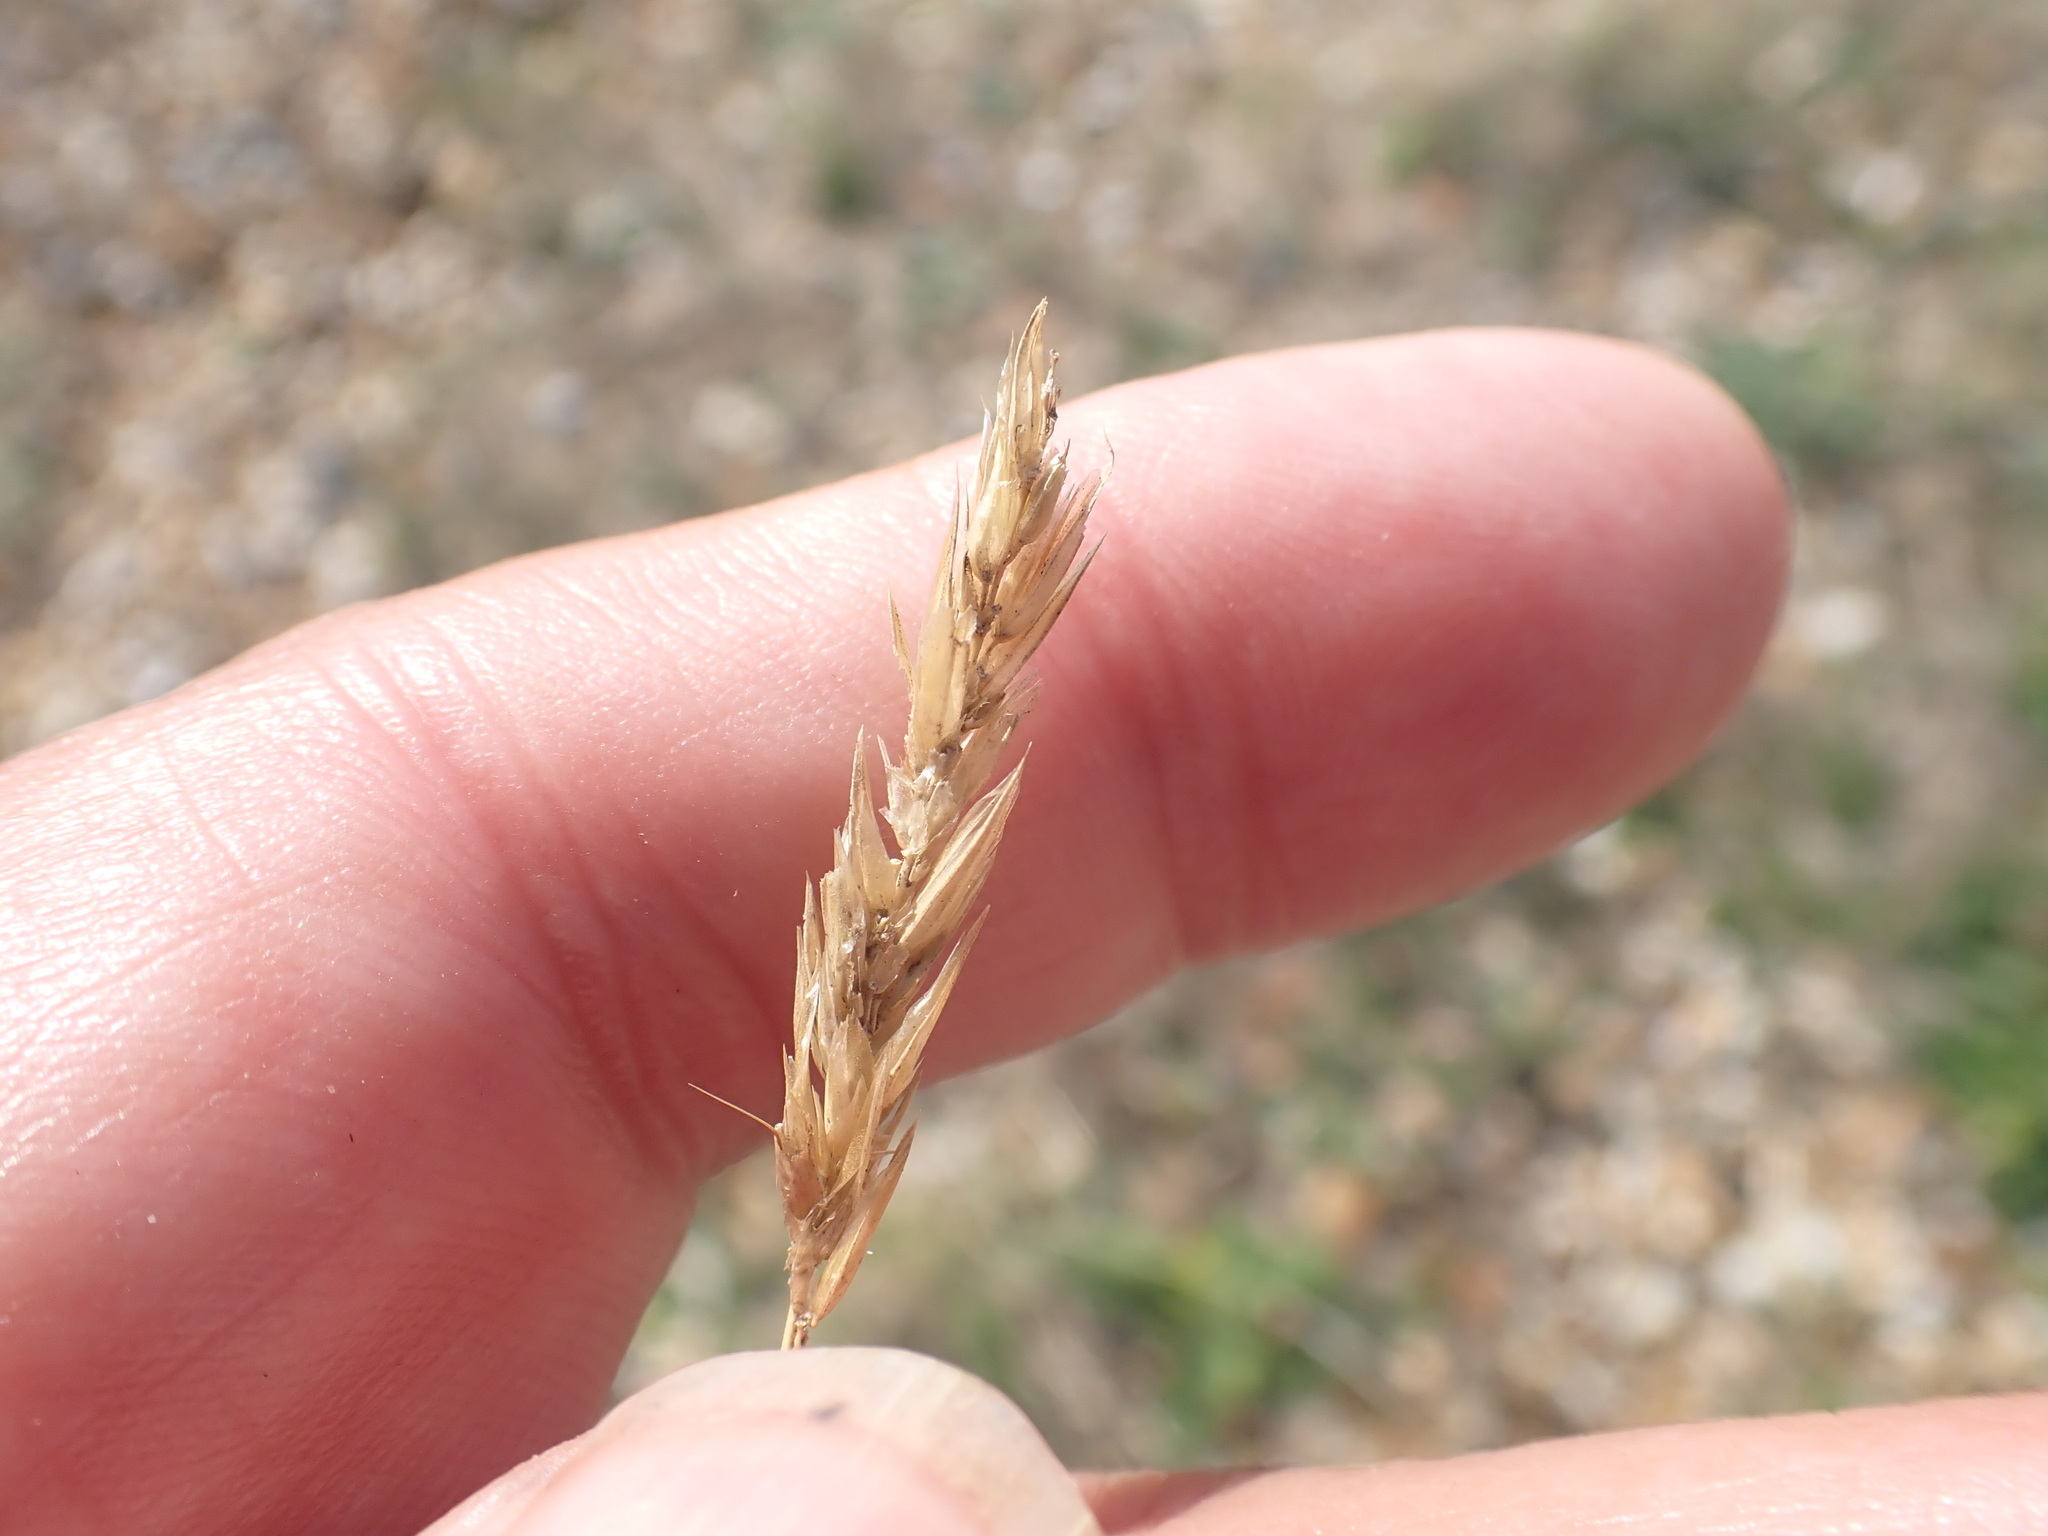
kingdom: Plantae
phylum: Tracheophyta
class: Liliopsida
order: Poales
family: Poaceae
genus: Anthoxanthum
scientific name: Anthoxanthum odoratum
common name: Sweet vernalgrass
